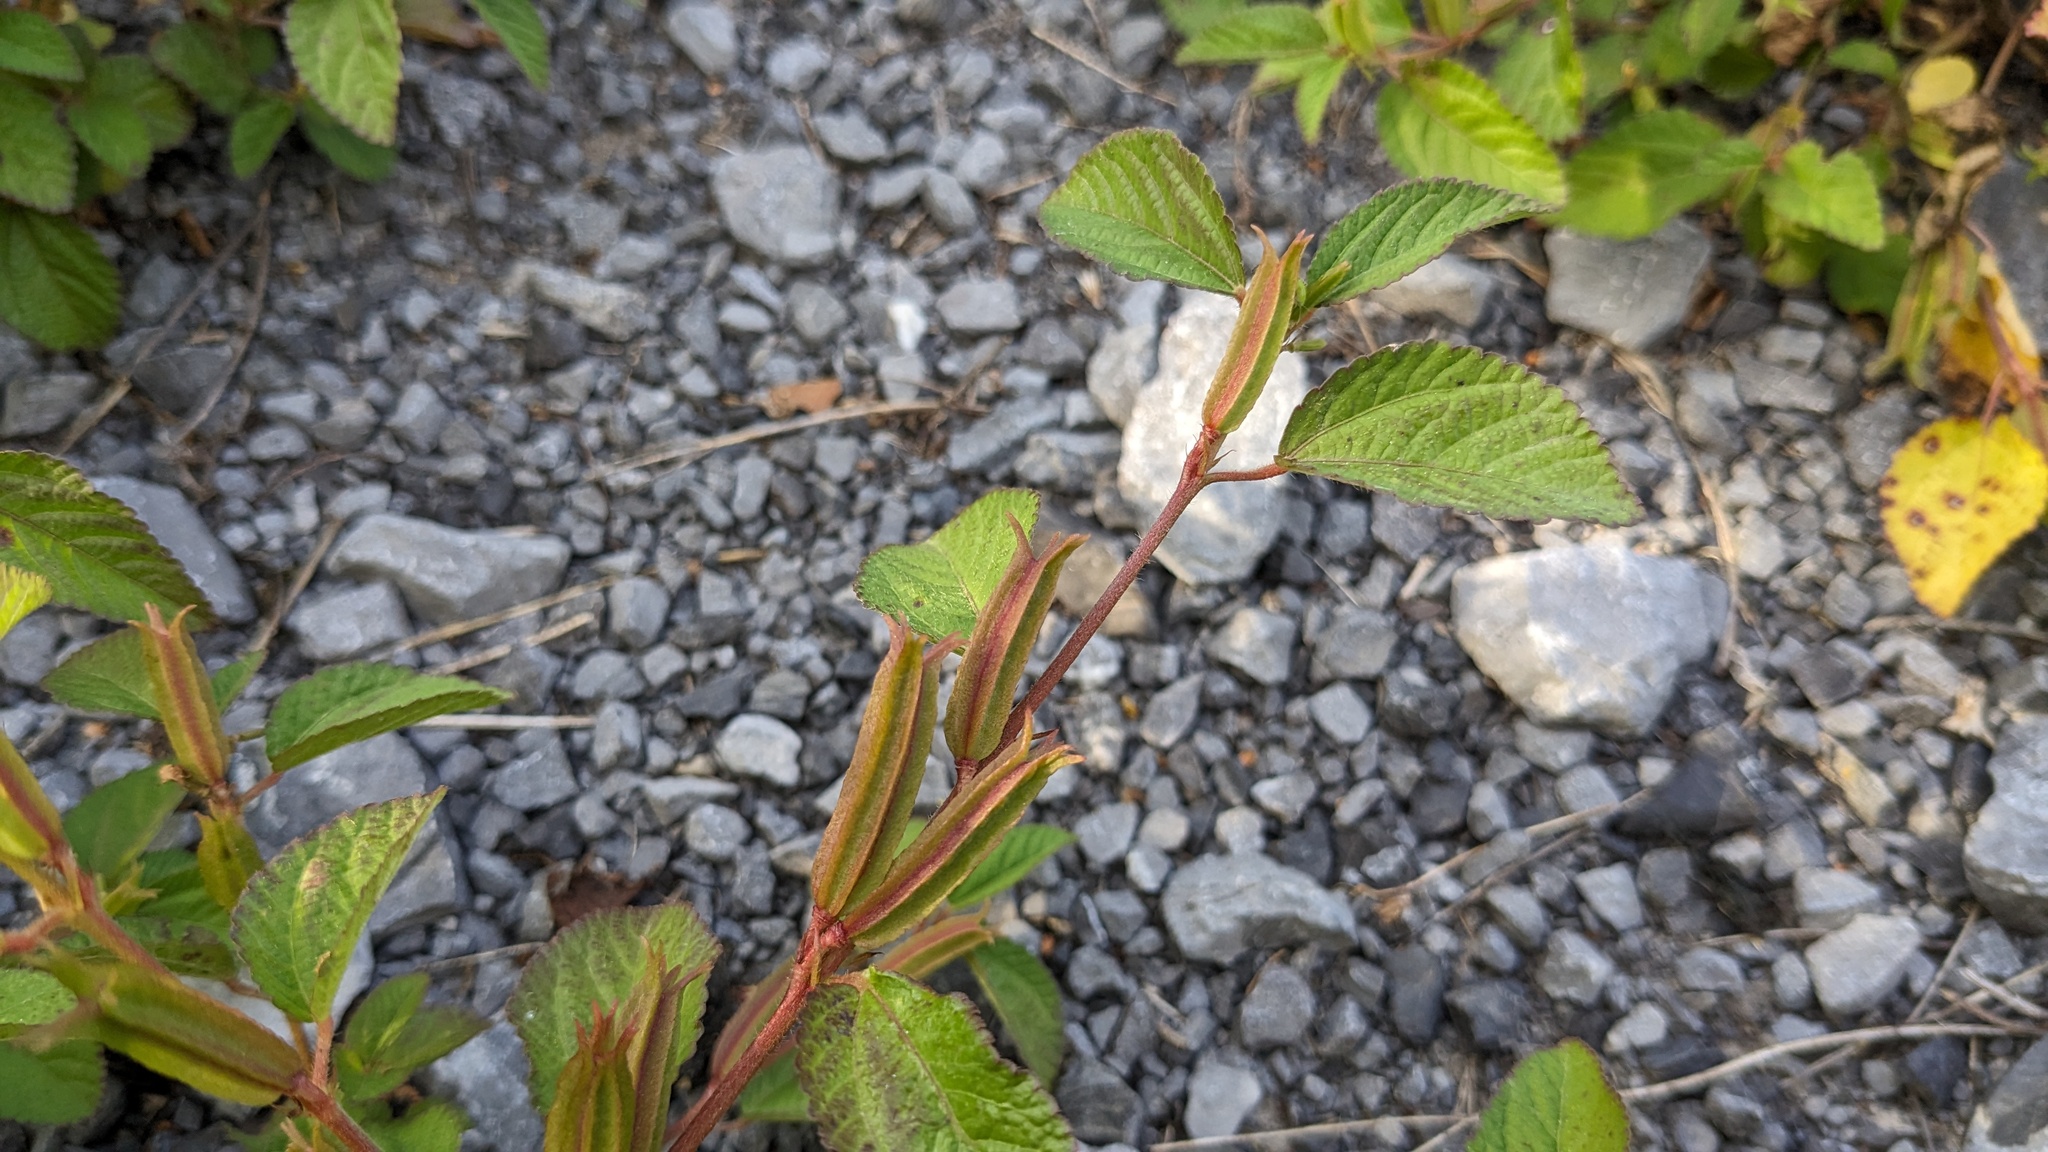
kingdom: Plantae
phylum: Tracheophyta
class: Magnoliopsida
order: Malvales
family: Malvaceae
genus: Corchorus
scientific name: Corchorus aestuans
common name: Jute
